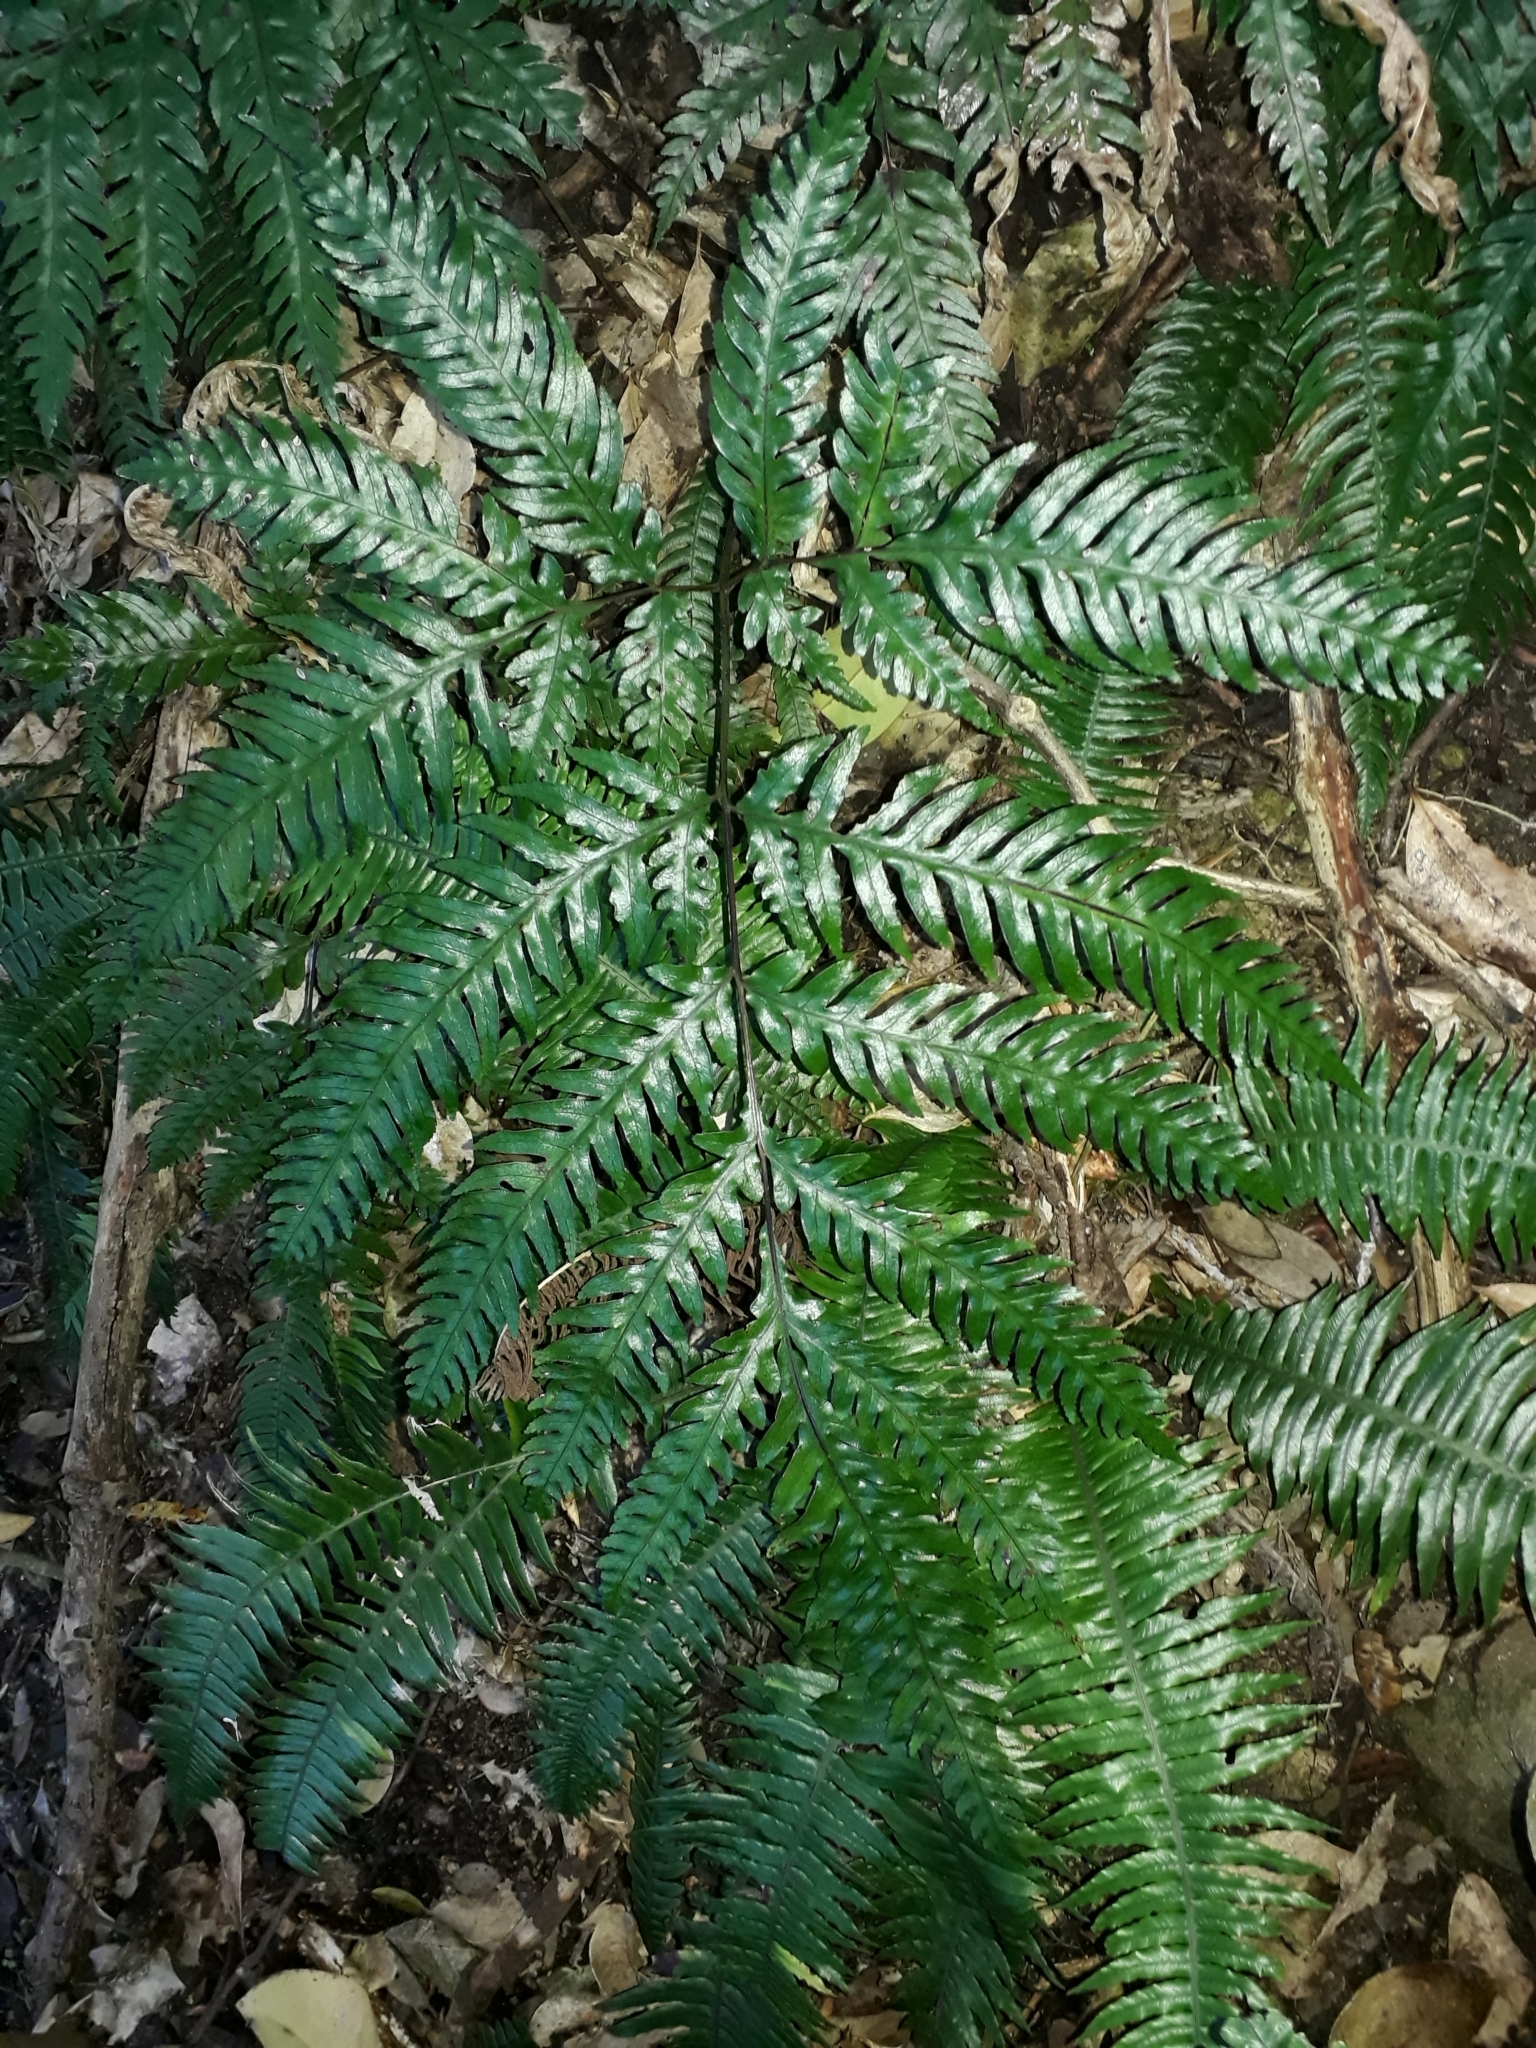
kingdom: Plantae
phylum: Tracheophyta
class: Polypodiopsida
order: Polypodiales
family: Pteridaceae
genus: Pteris
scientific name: Pteris carsei
